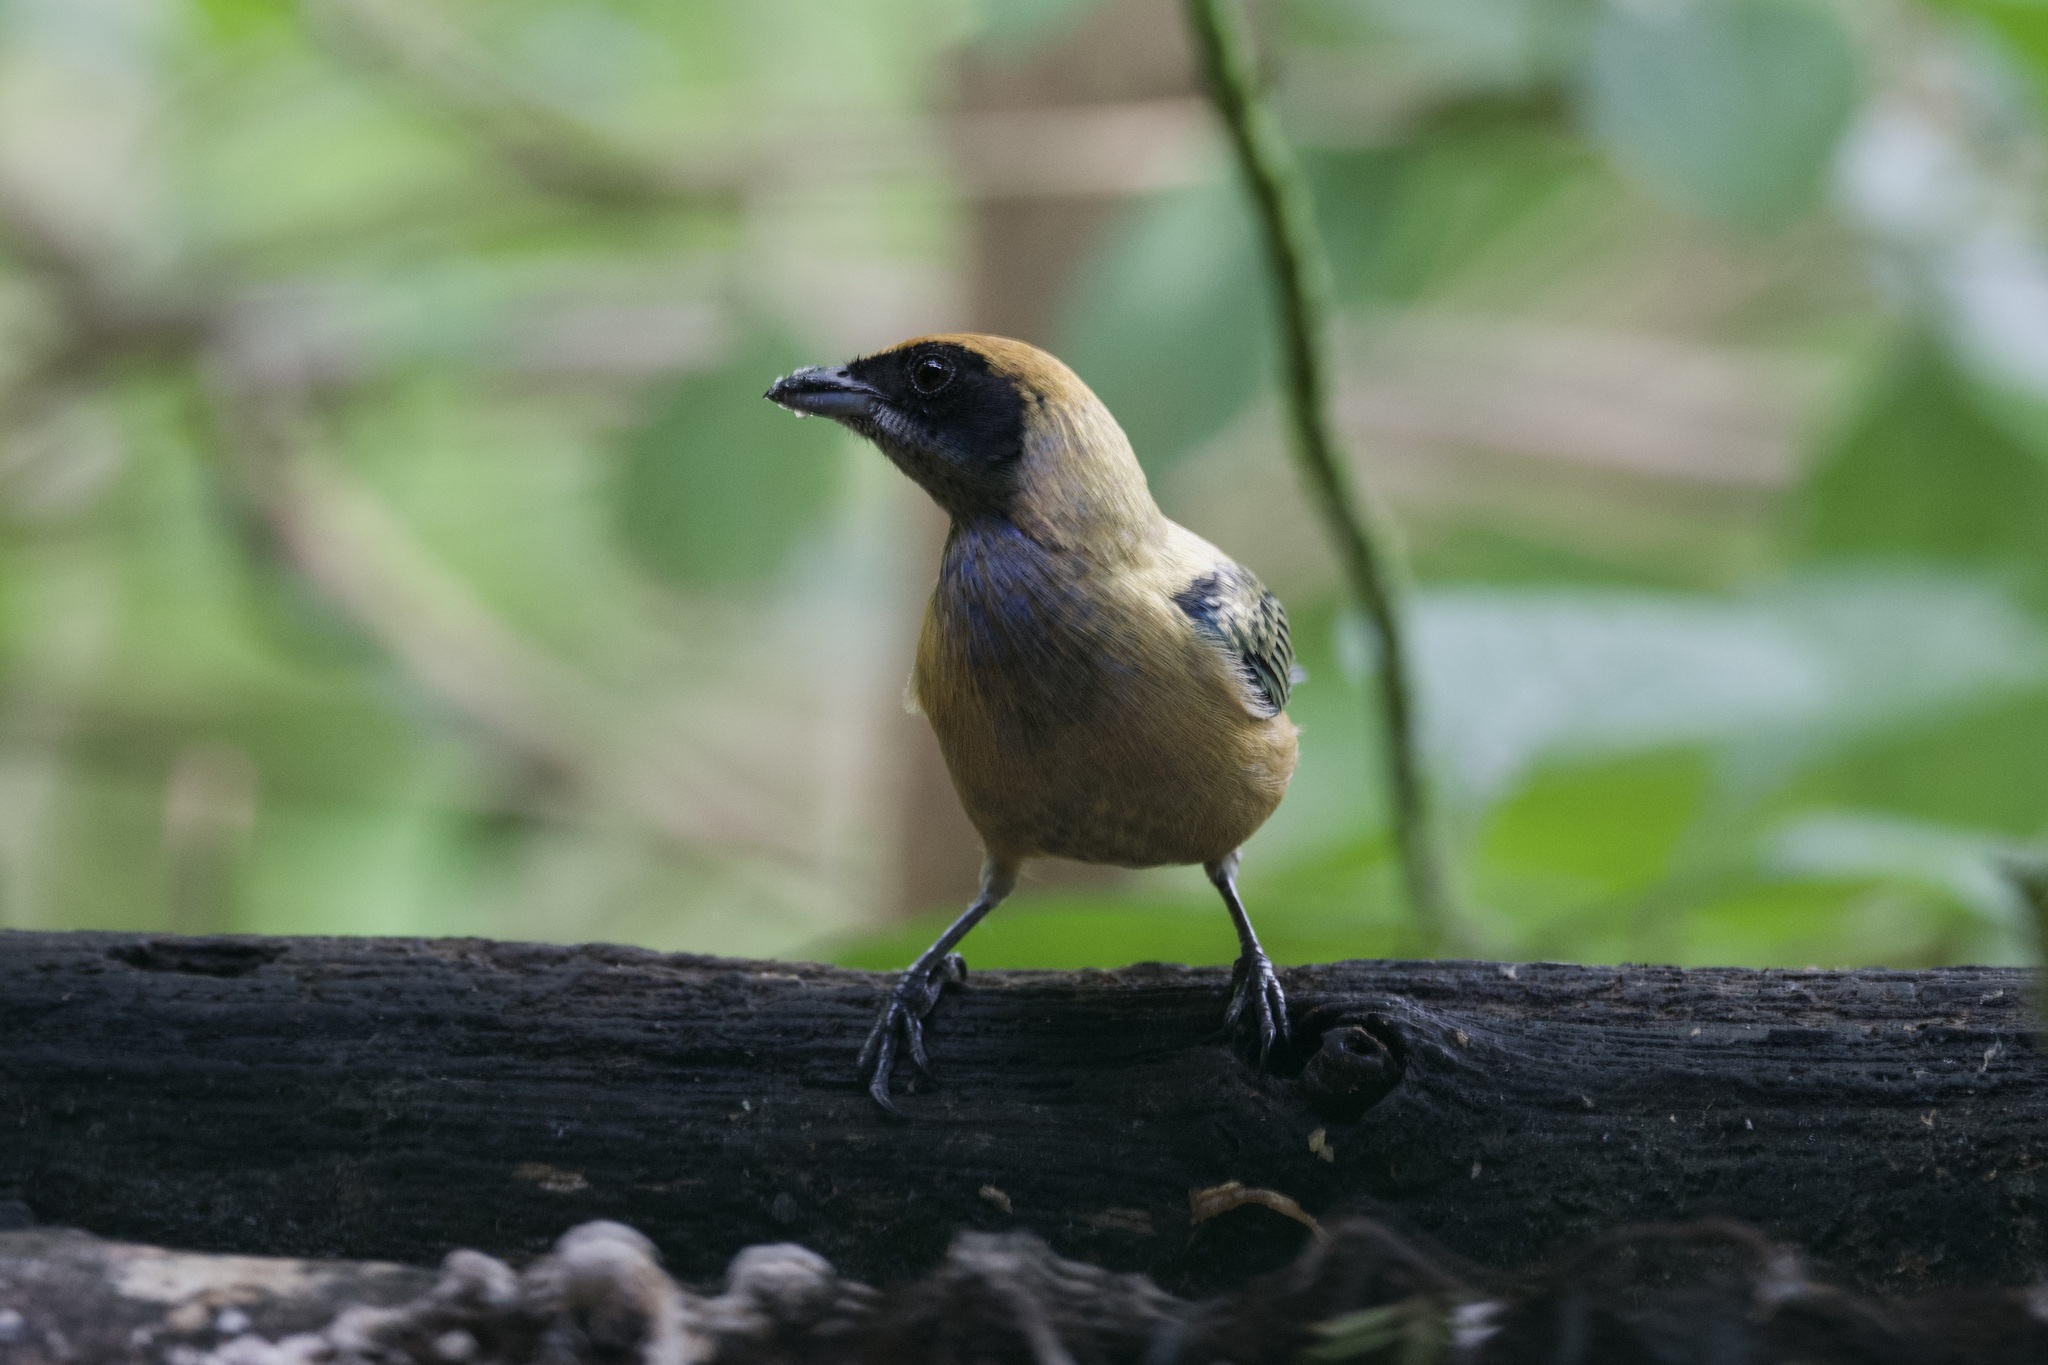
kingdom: Animalia
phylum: Chordata
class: Aves
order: Passeriformes
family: Thraupidae
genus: Stilpnia
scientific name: Stilpnia cayana
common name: Burnished-buff tanager
